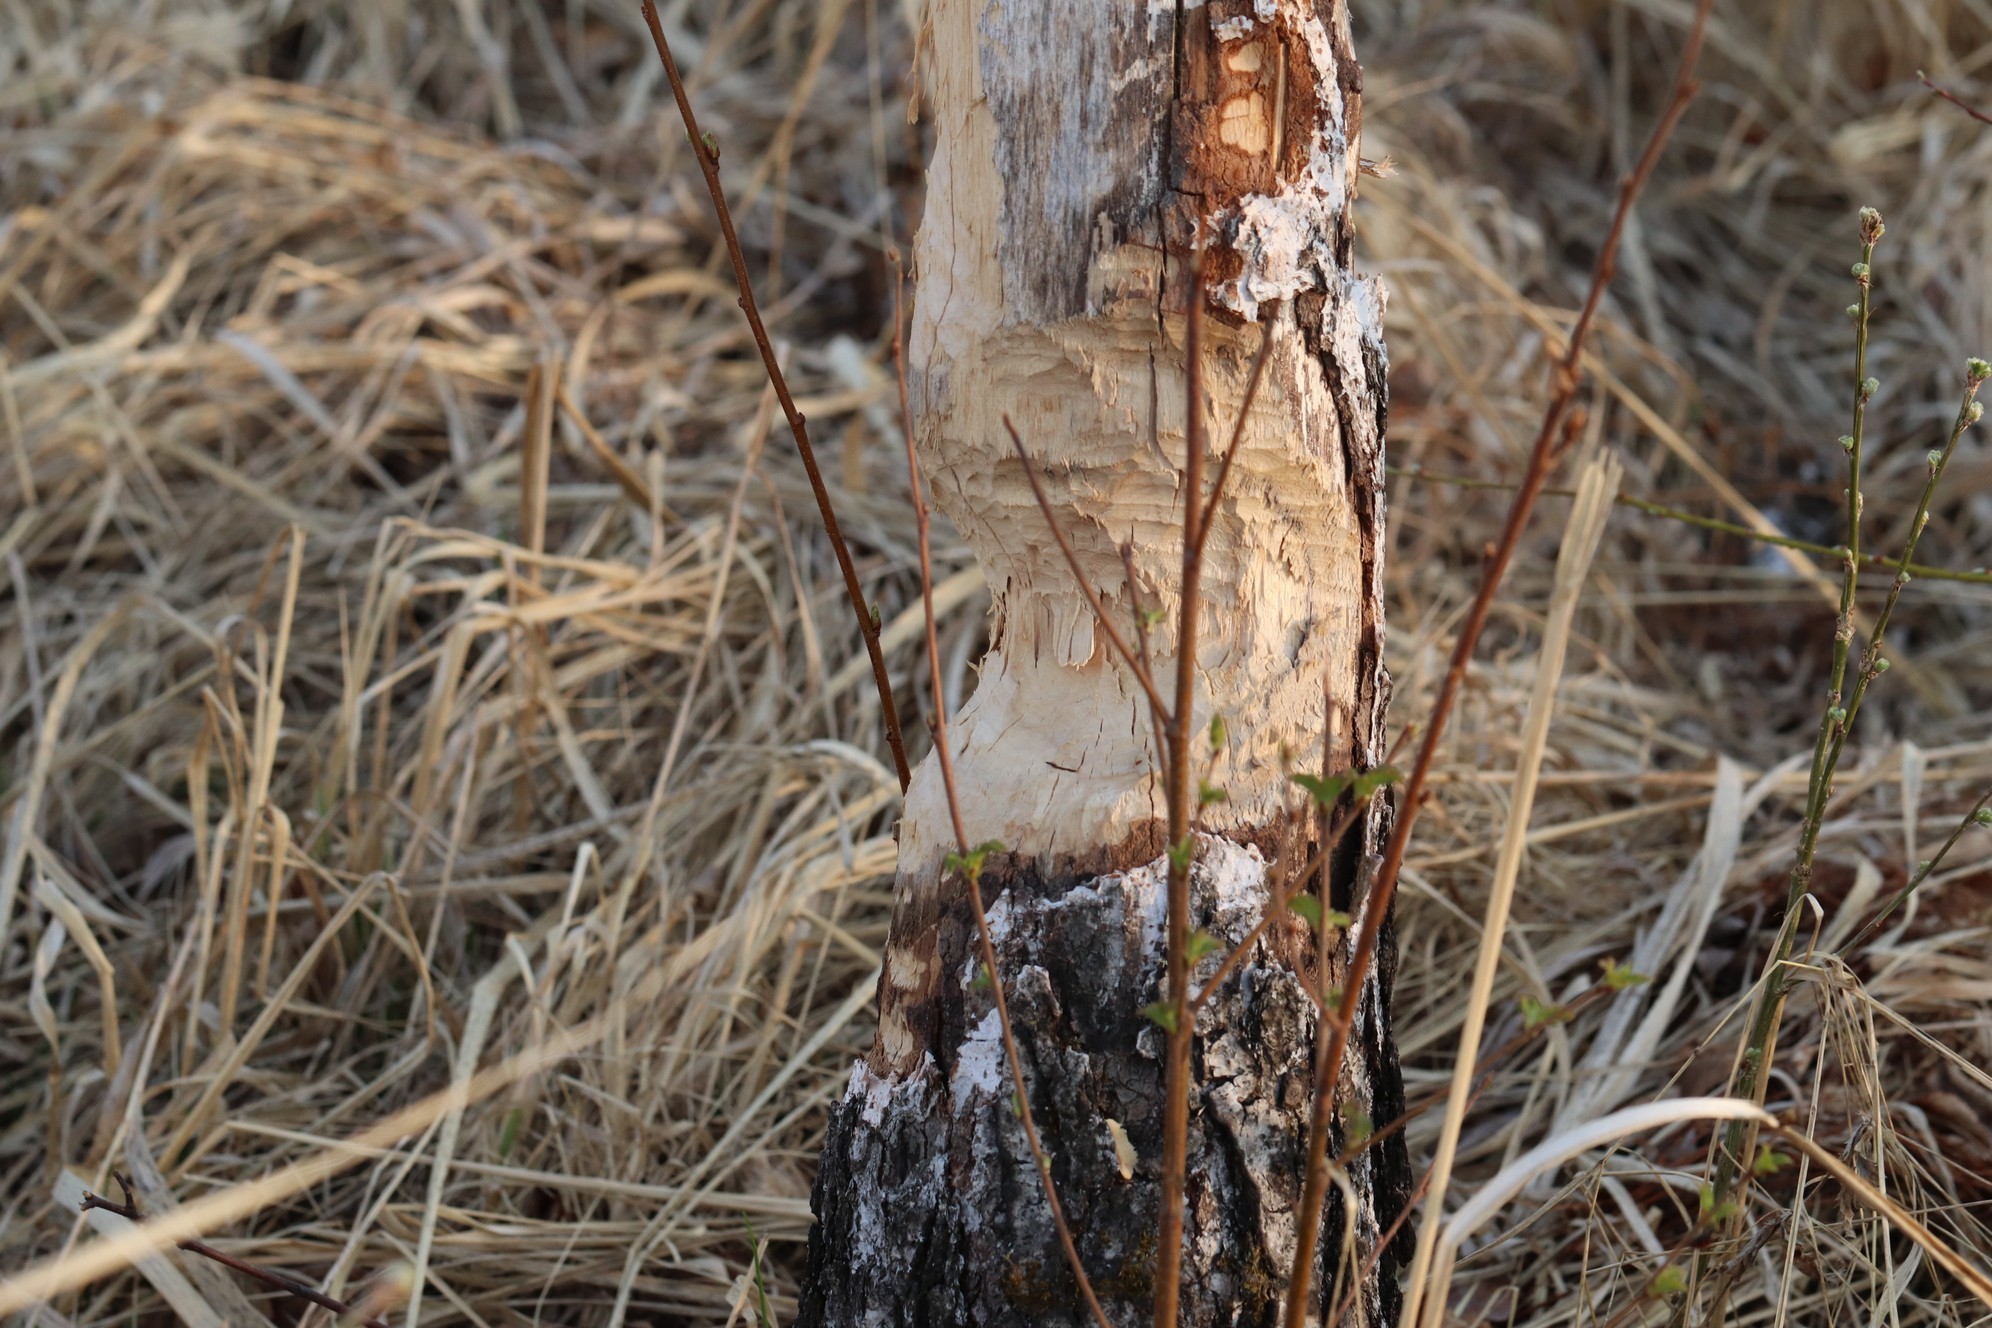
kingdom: Animalia
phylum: Chordata
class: Mammalia
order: Rodentia
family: Castoridae
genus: Castor
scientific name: Castor fiber
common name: Eurasian beaver
